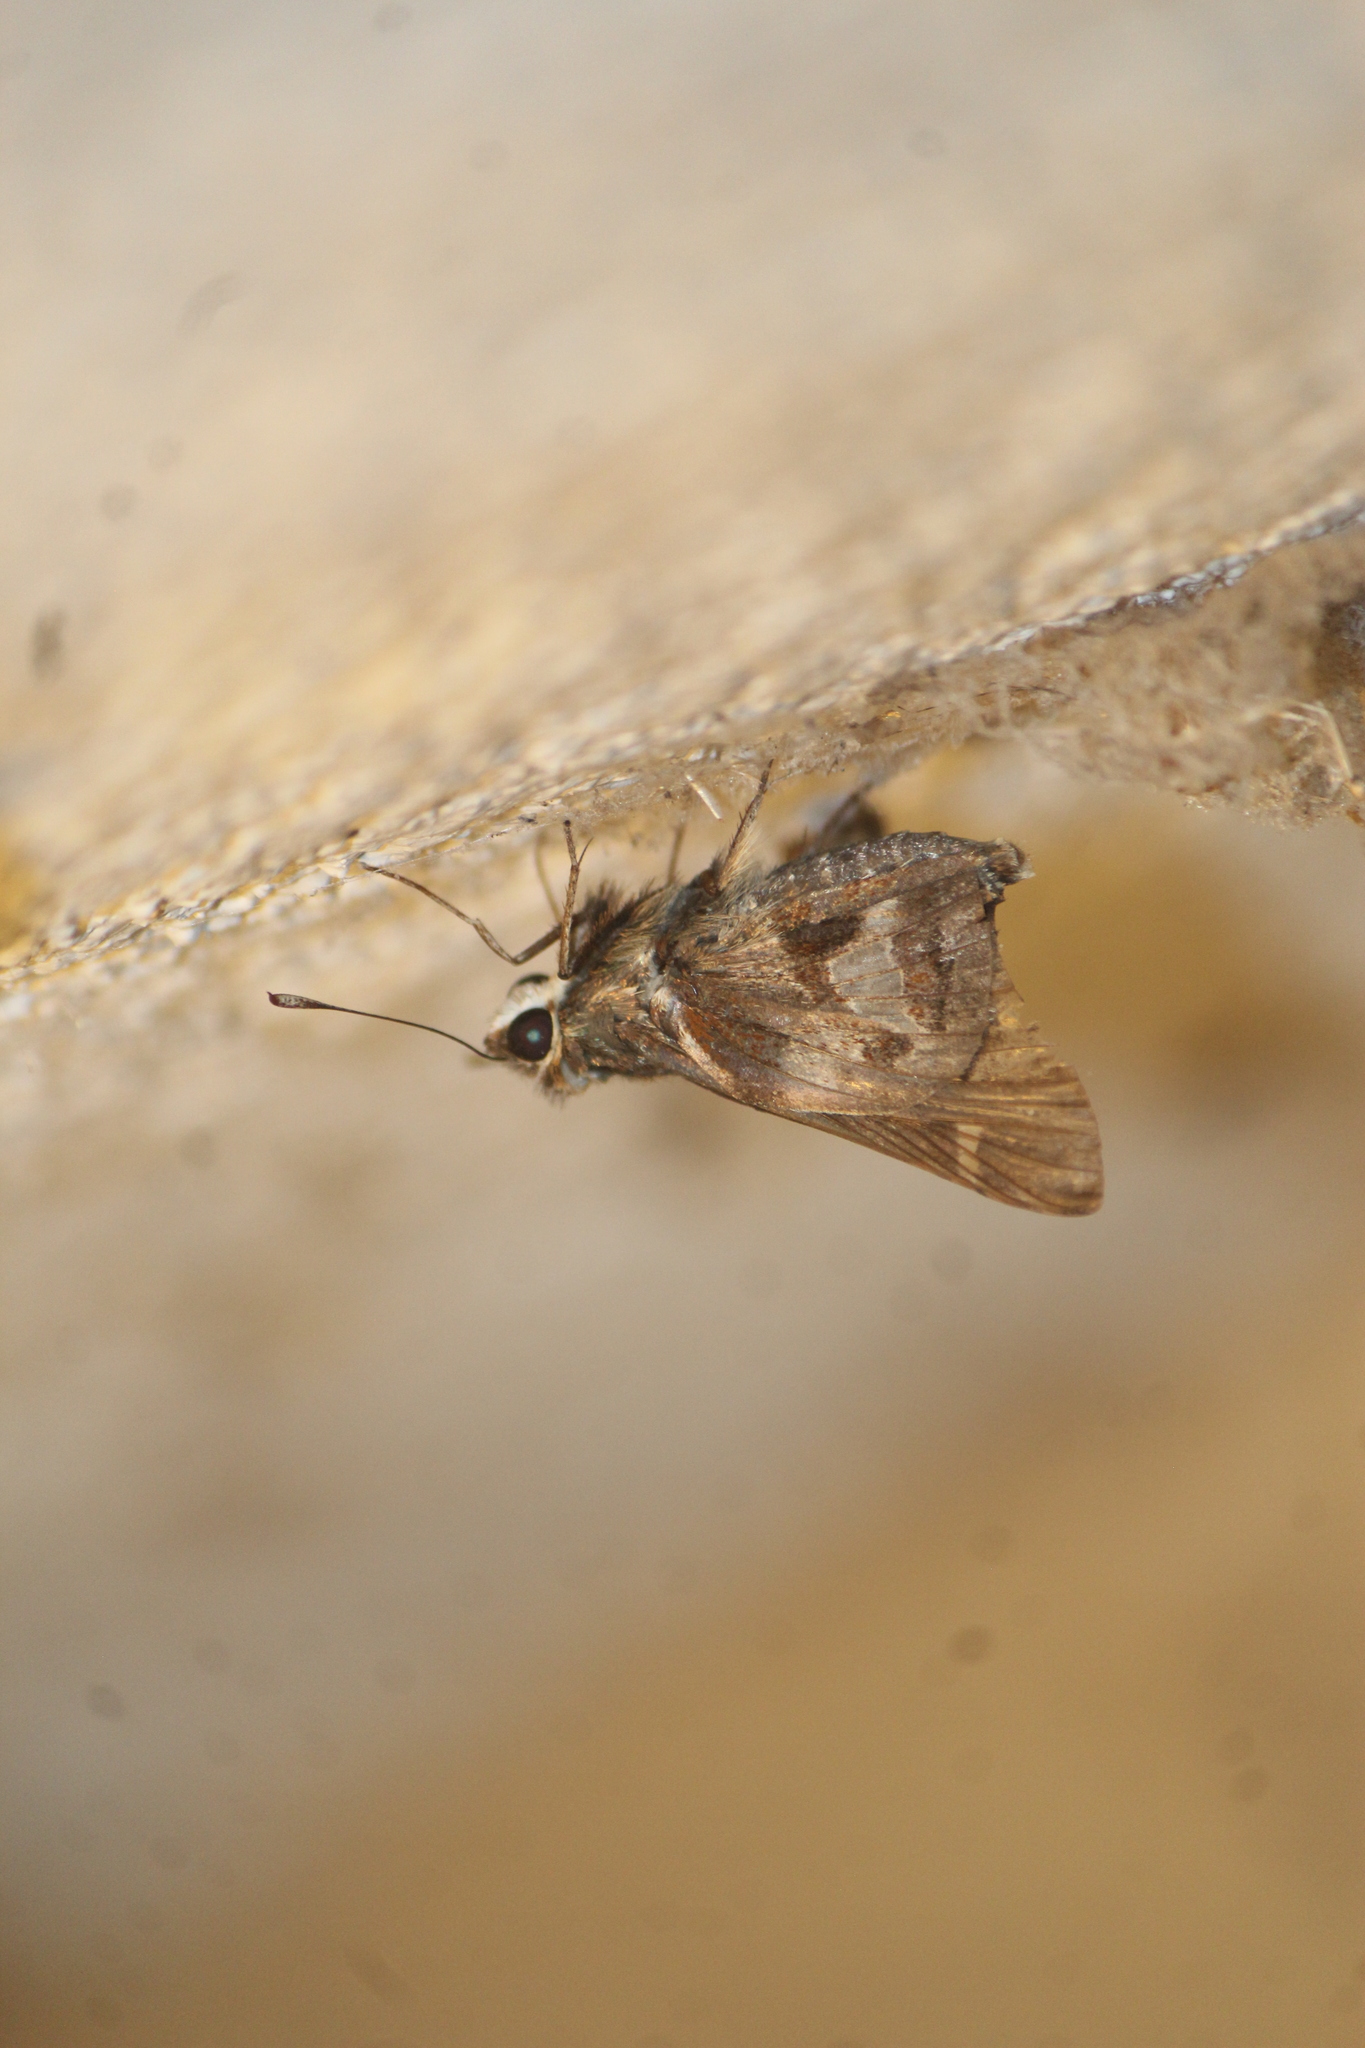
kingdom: Animalia
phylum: Arthropoda
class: Insecta
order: Lepidoptera
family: Hesperiidae
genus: Thespieus
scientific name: Thespieus macareus
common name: Chestnut-marked skipper
